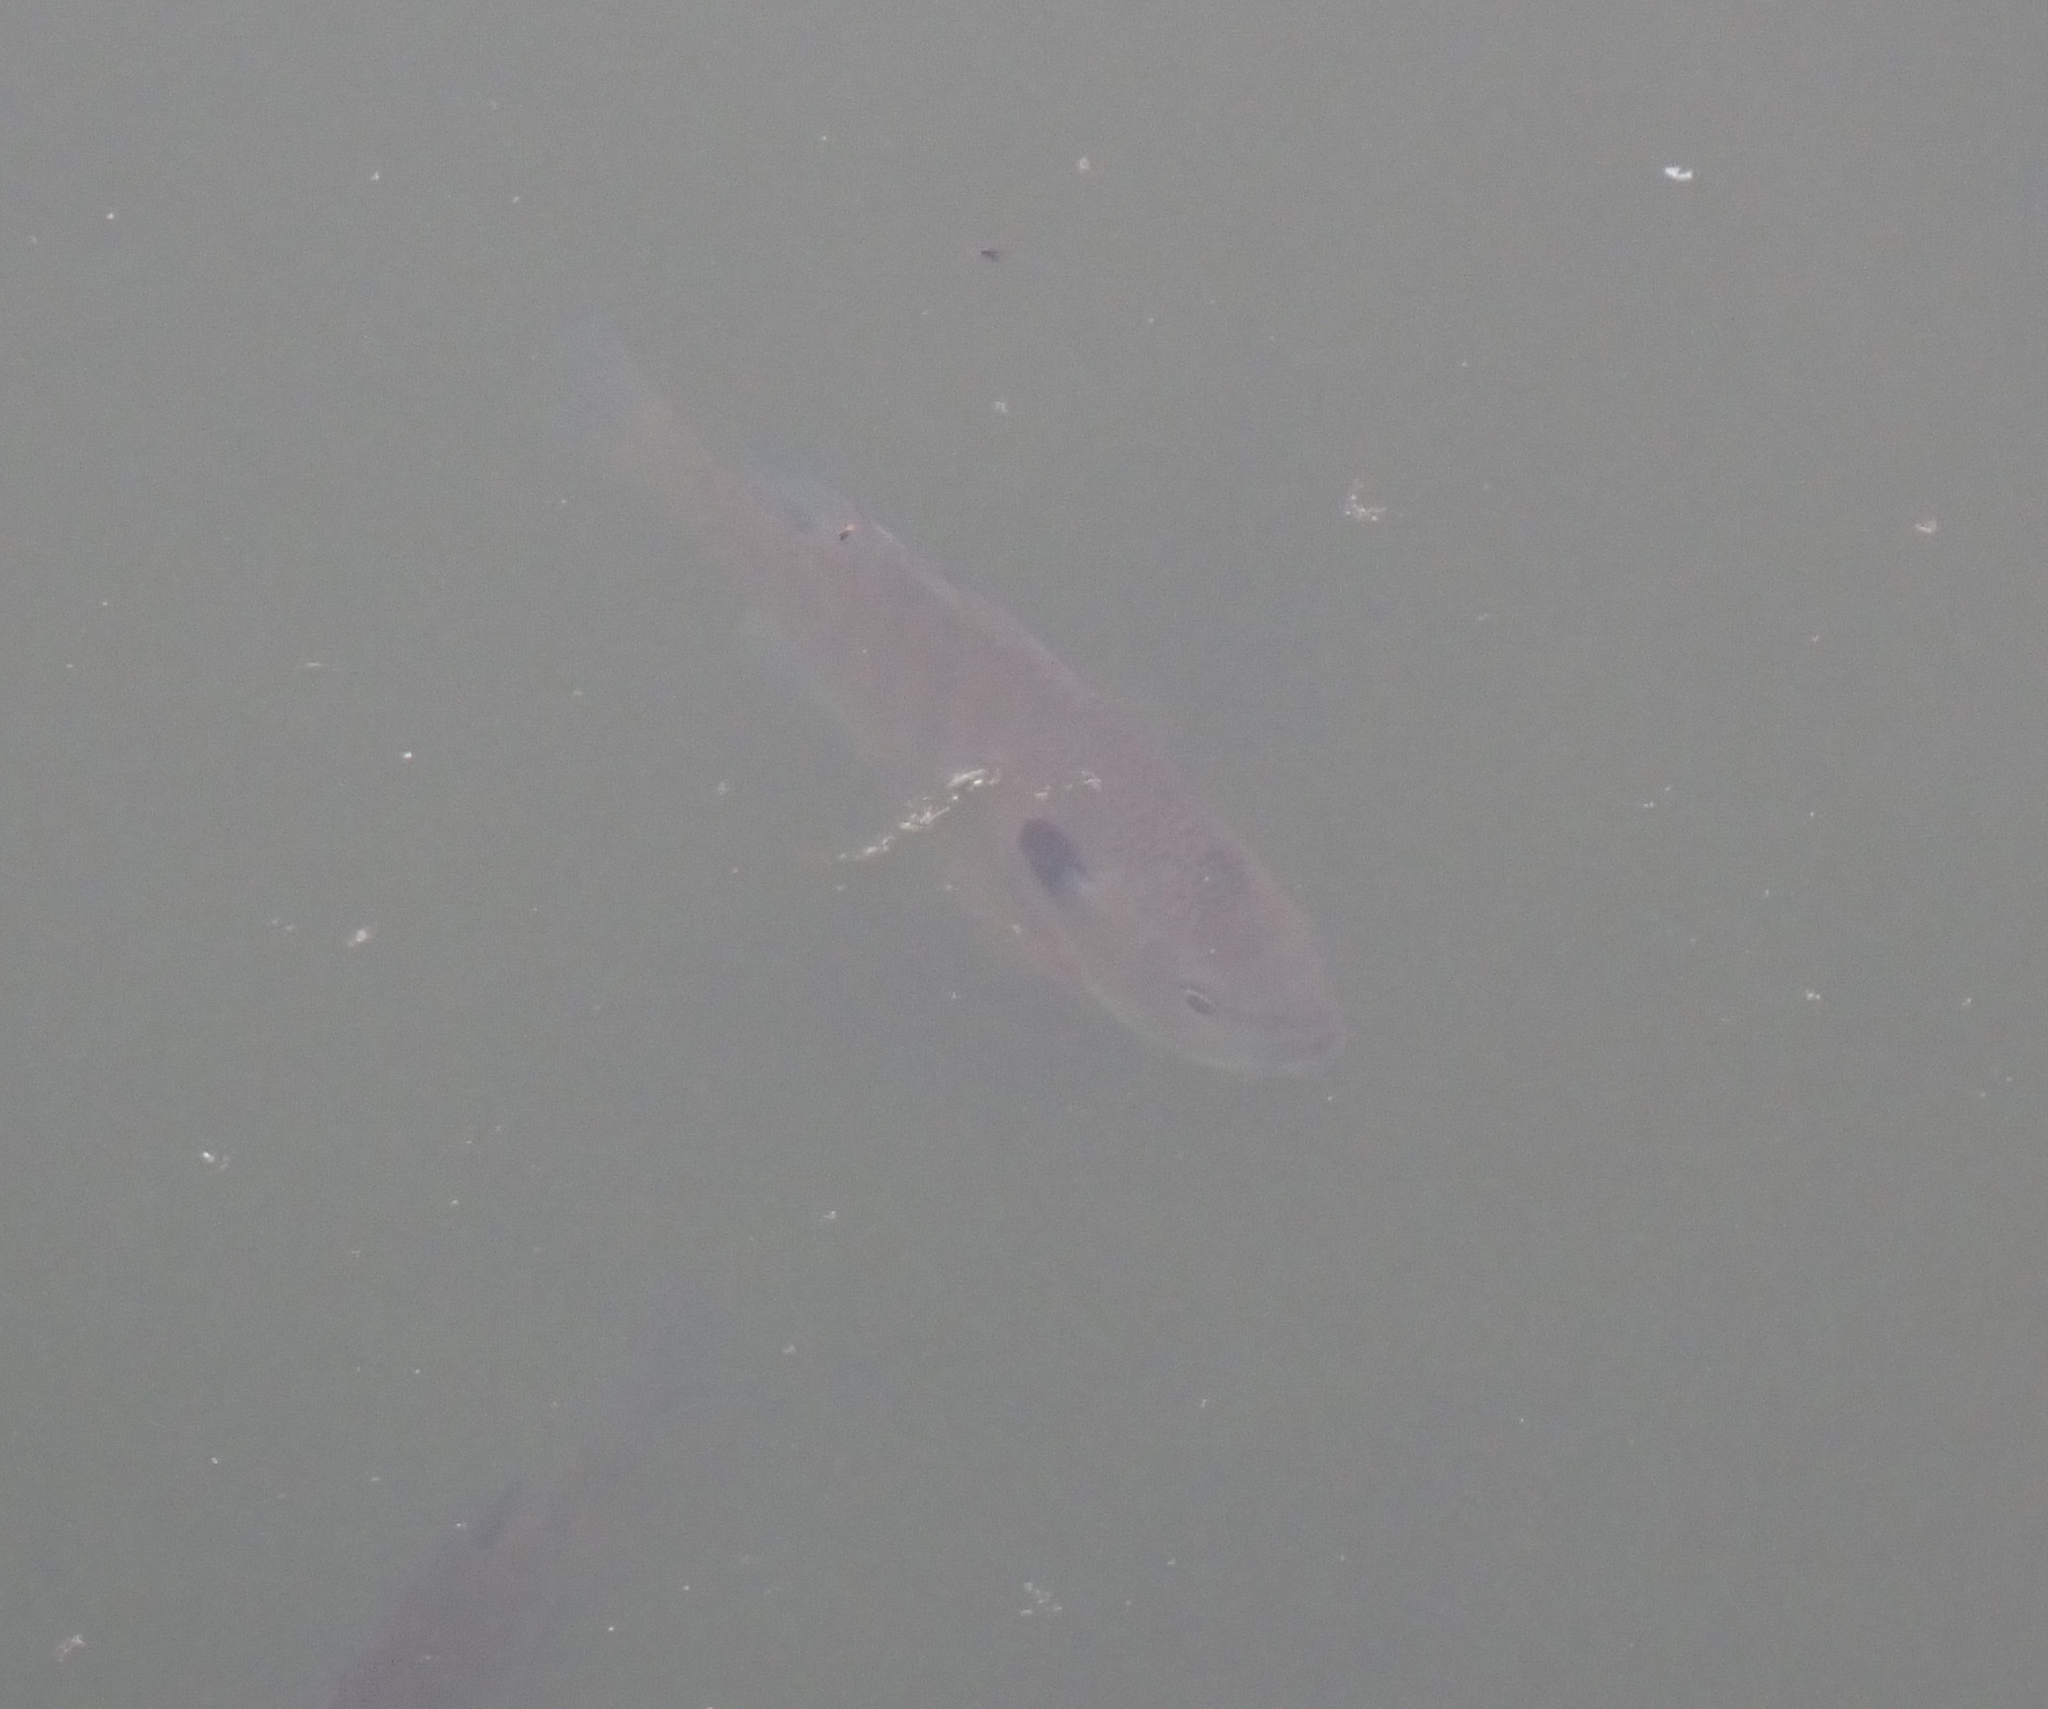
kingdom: Animalia
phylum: Chordata
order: Perciformes
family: Centrarchidae
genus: Lepomis
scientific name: Lepomis macrochirus
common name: Bluegill
